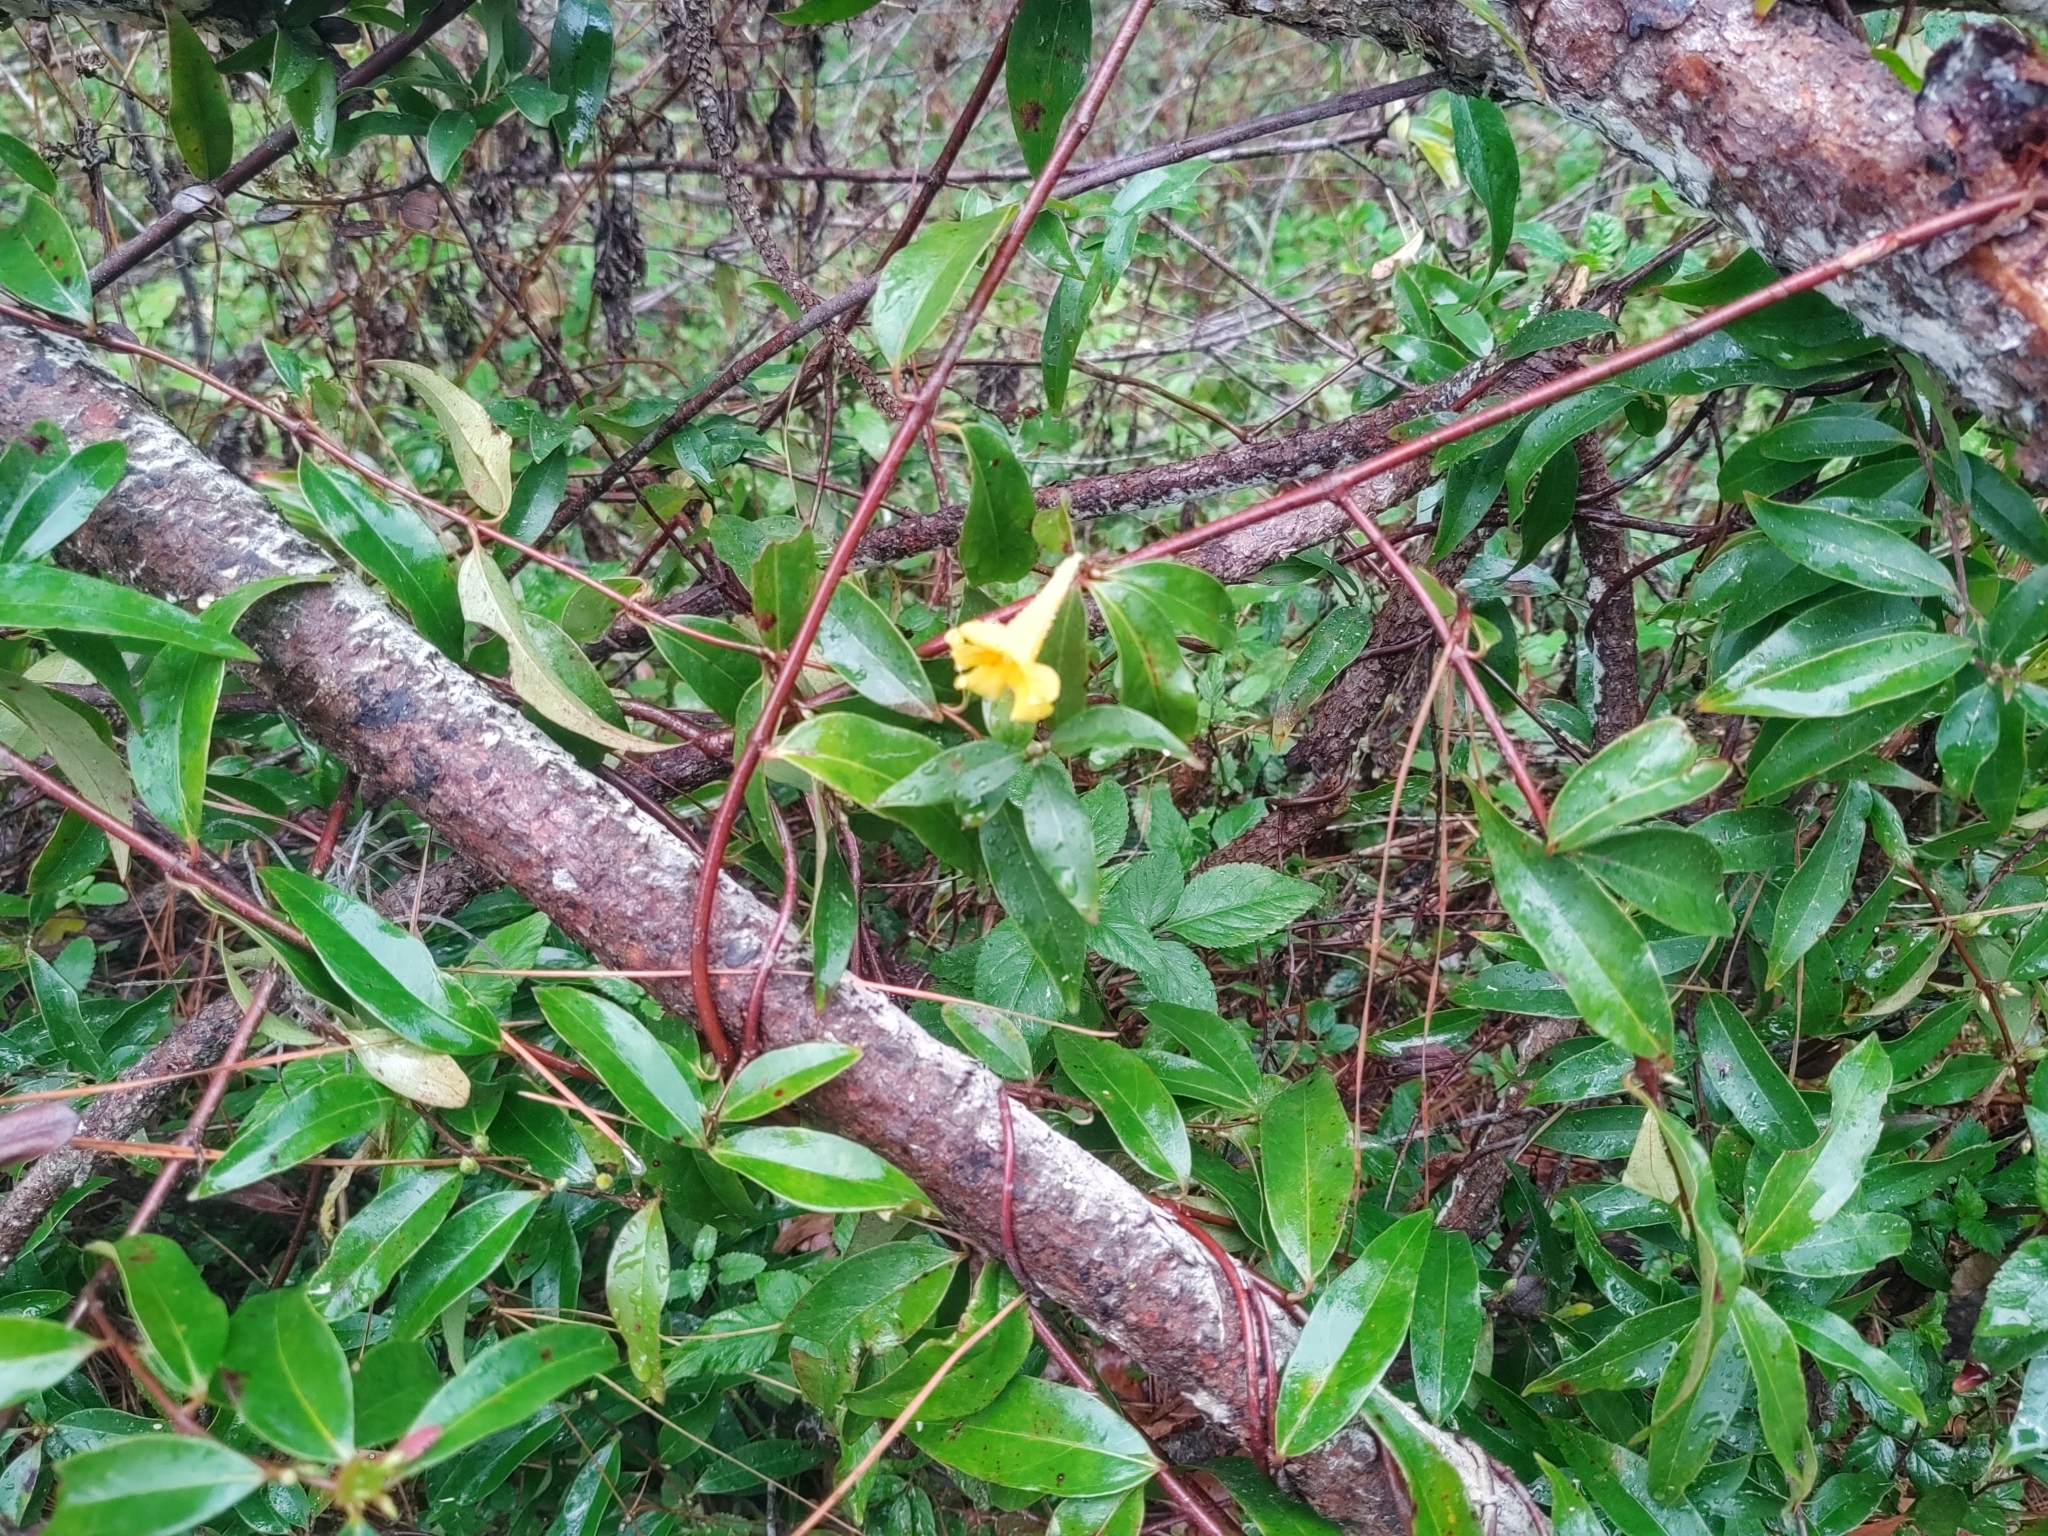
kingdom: Plantae
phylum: Tracheophyta
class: Magnoliopsida
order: Gentianales
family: Gelsemiaceae
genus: Gelsemium
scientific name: Gelsemium sempervirens
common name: Carolina-jasmine
